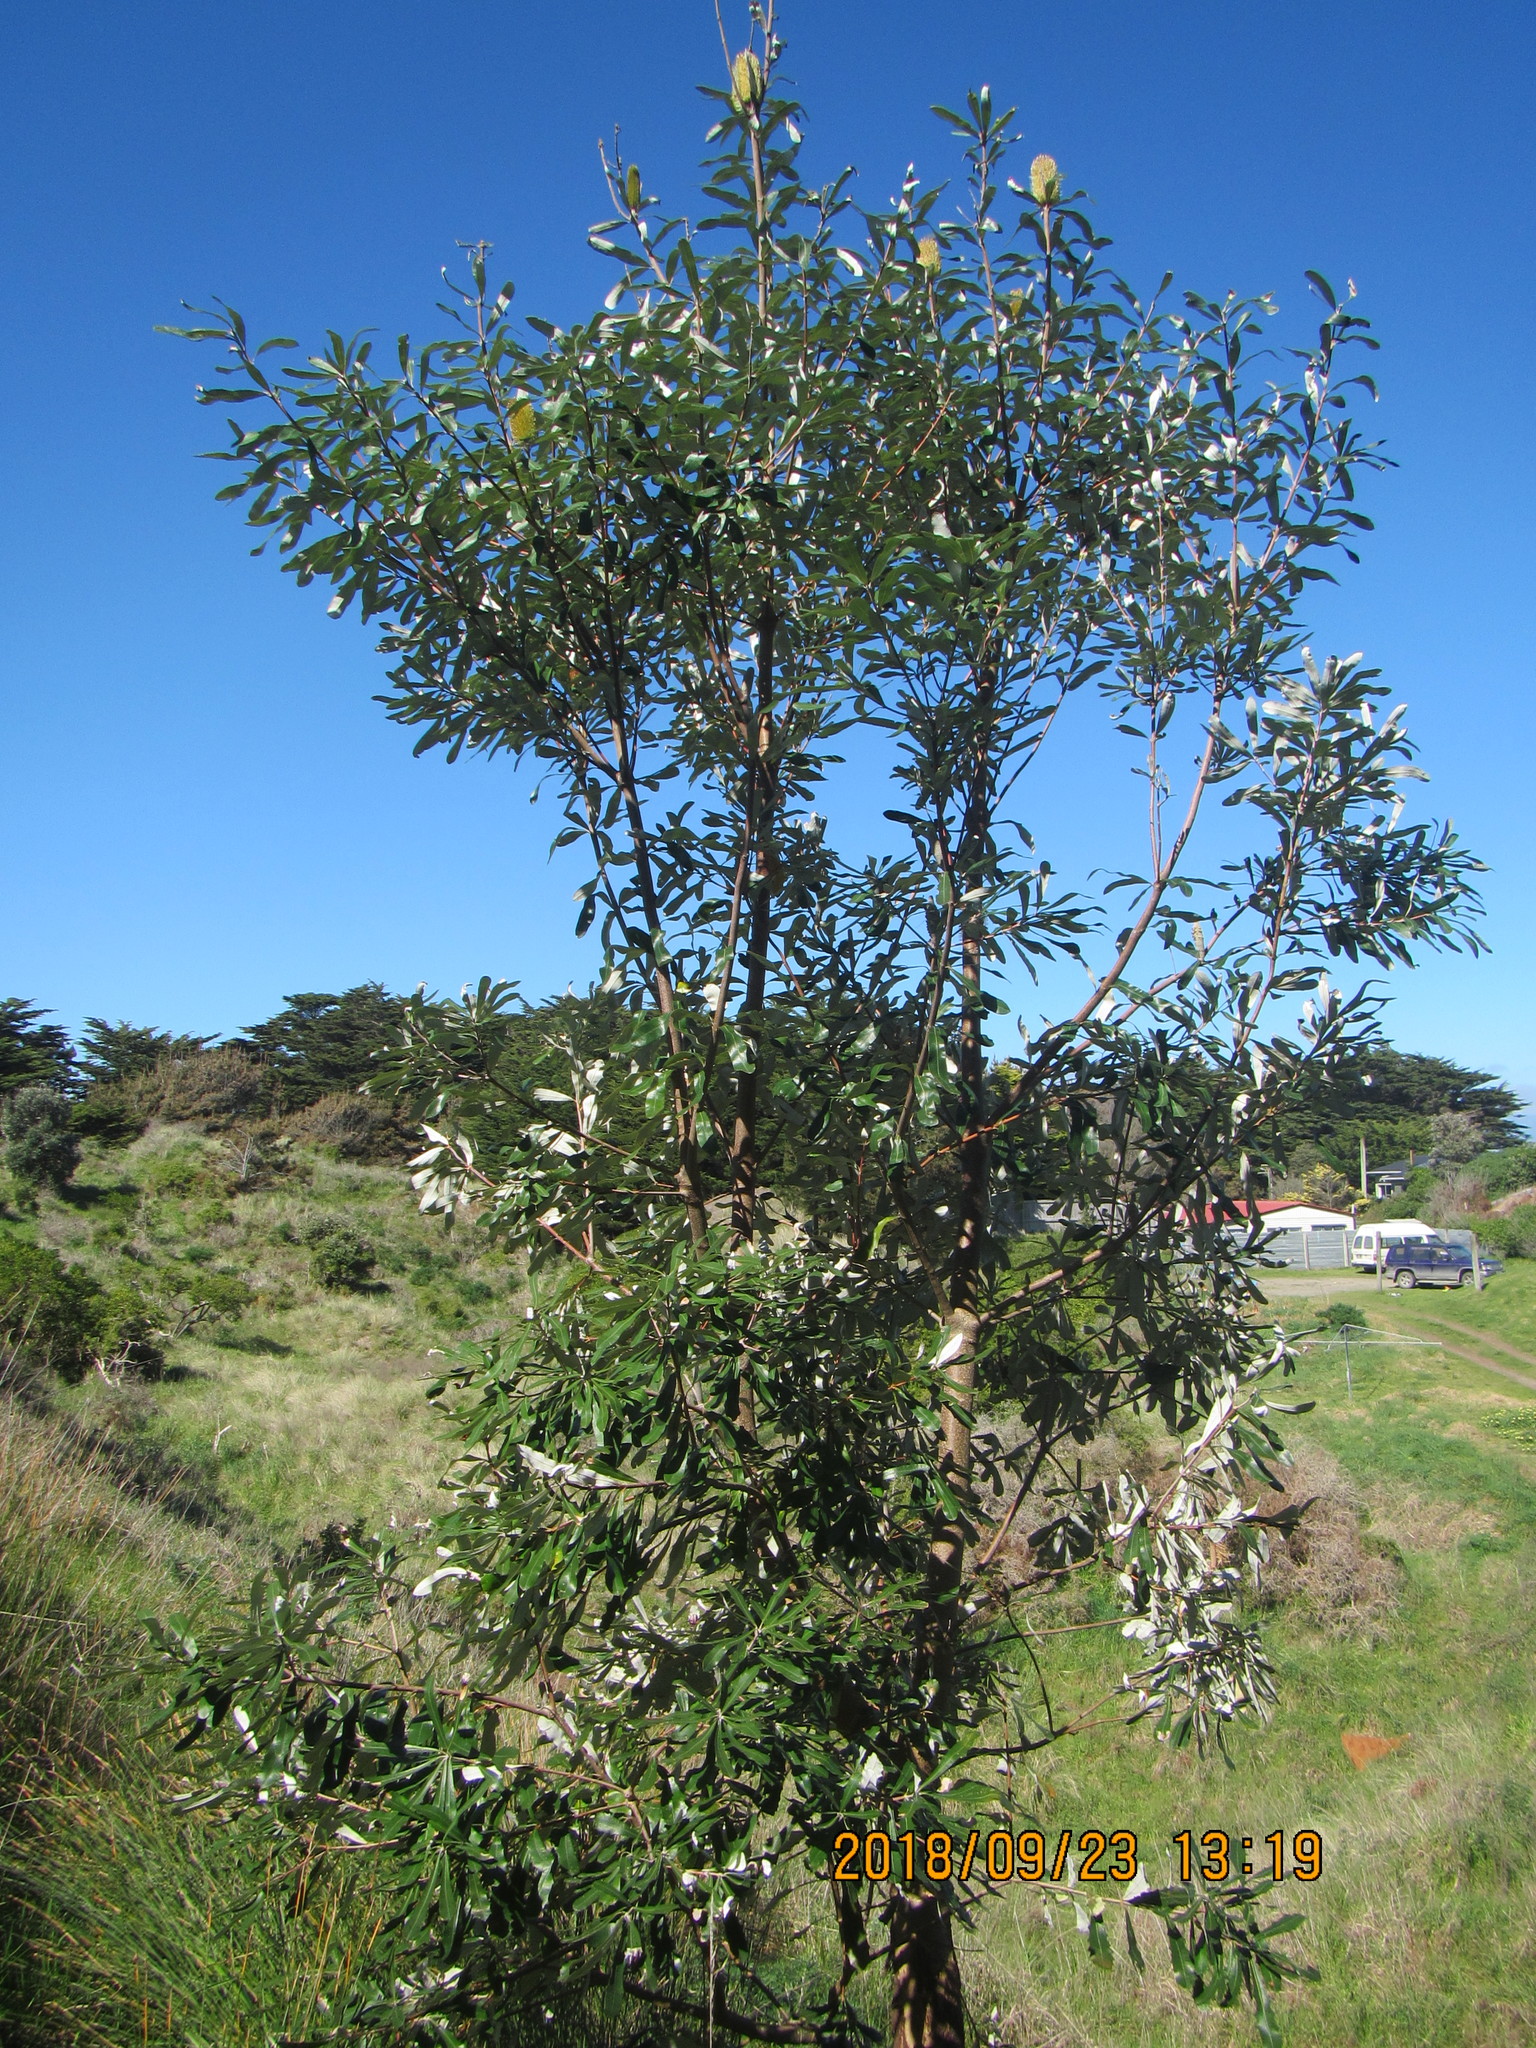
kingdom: Plantae
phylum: Tracheophyta
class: Magnoliopsida
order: Proteales
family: Proteaceae
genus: Banksia
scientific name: Banksia integrifolia
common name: White-honeysuckle
